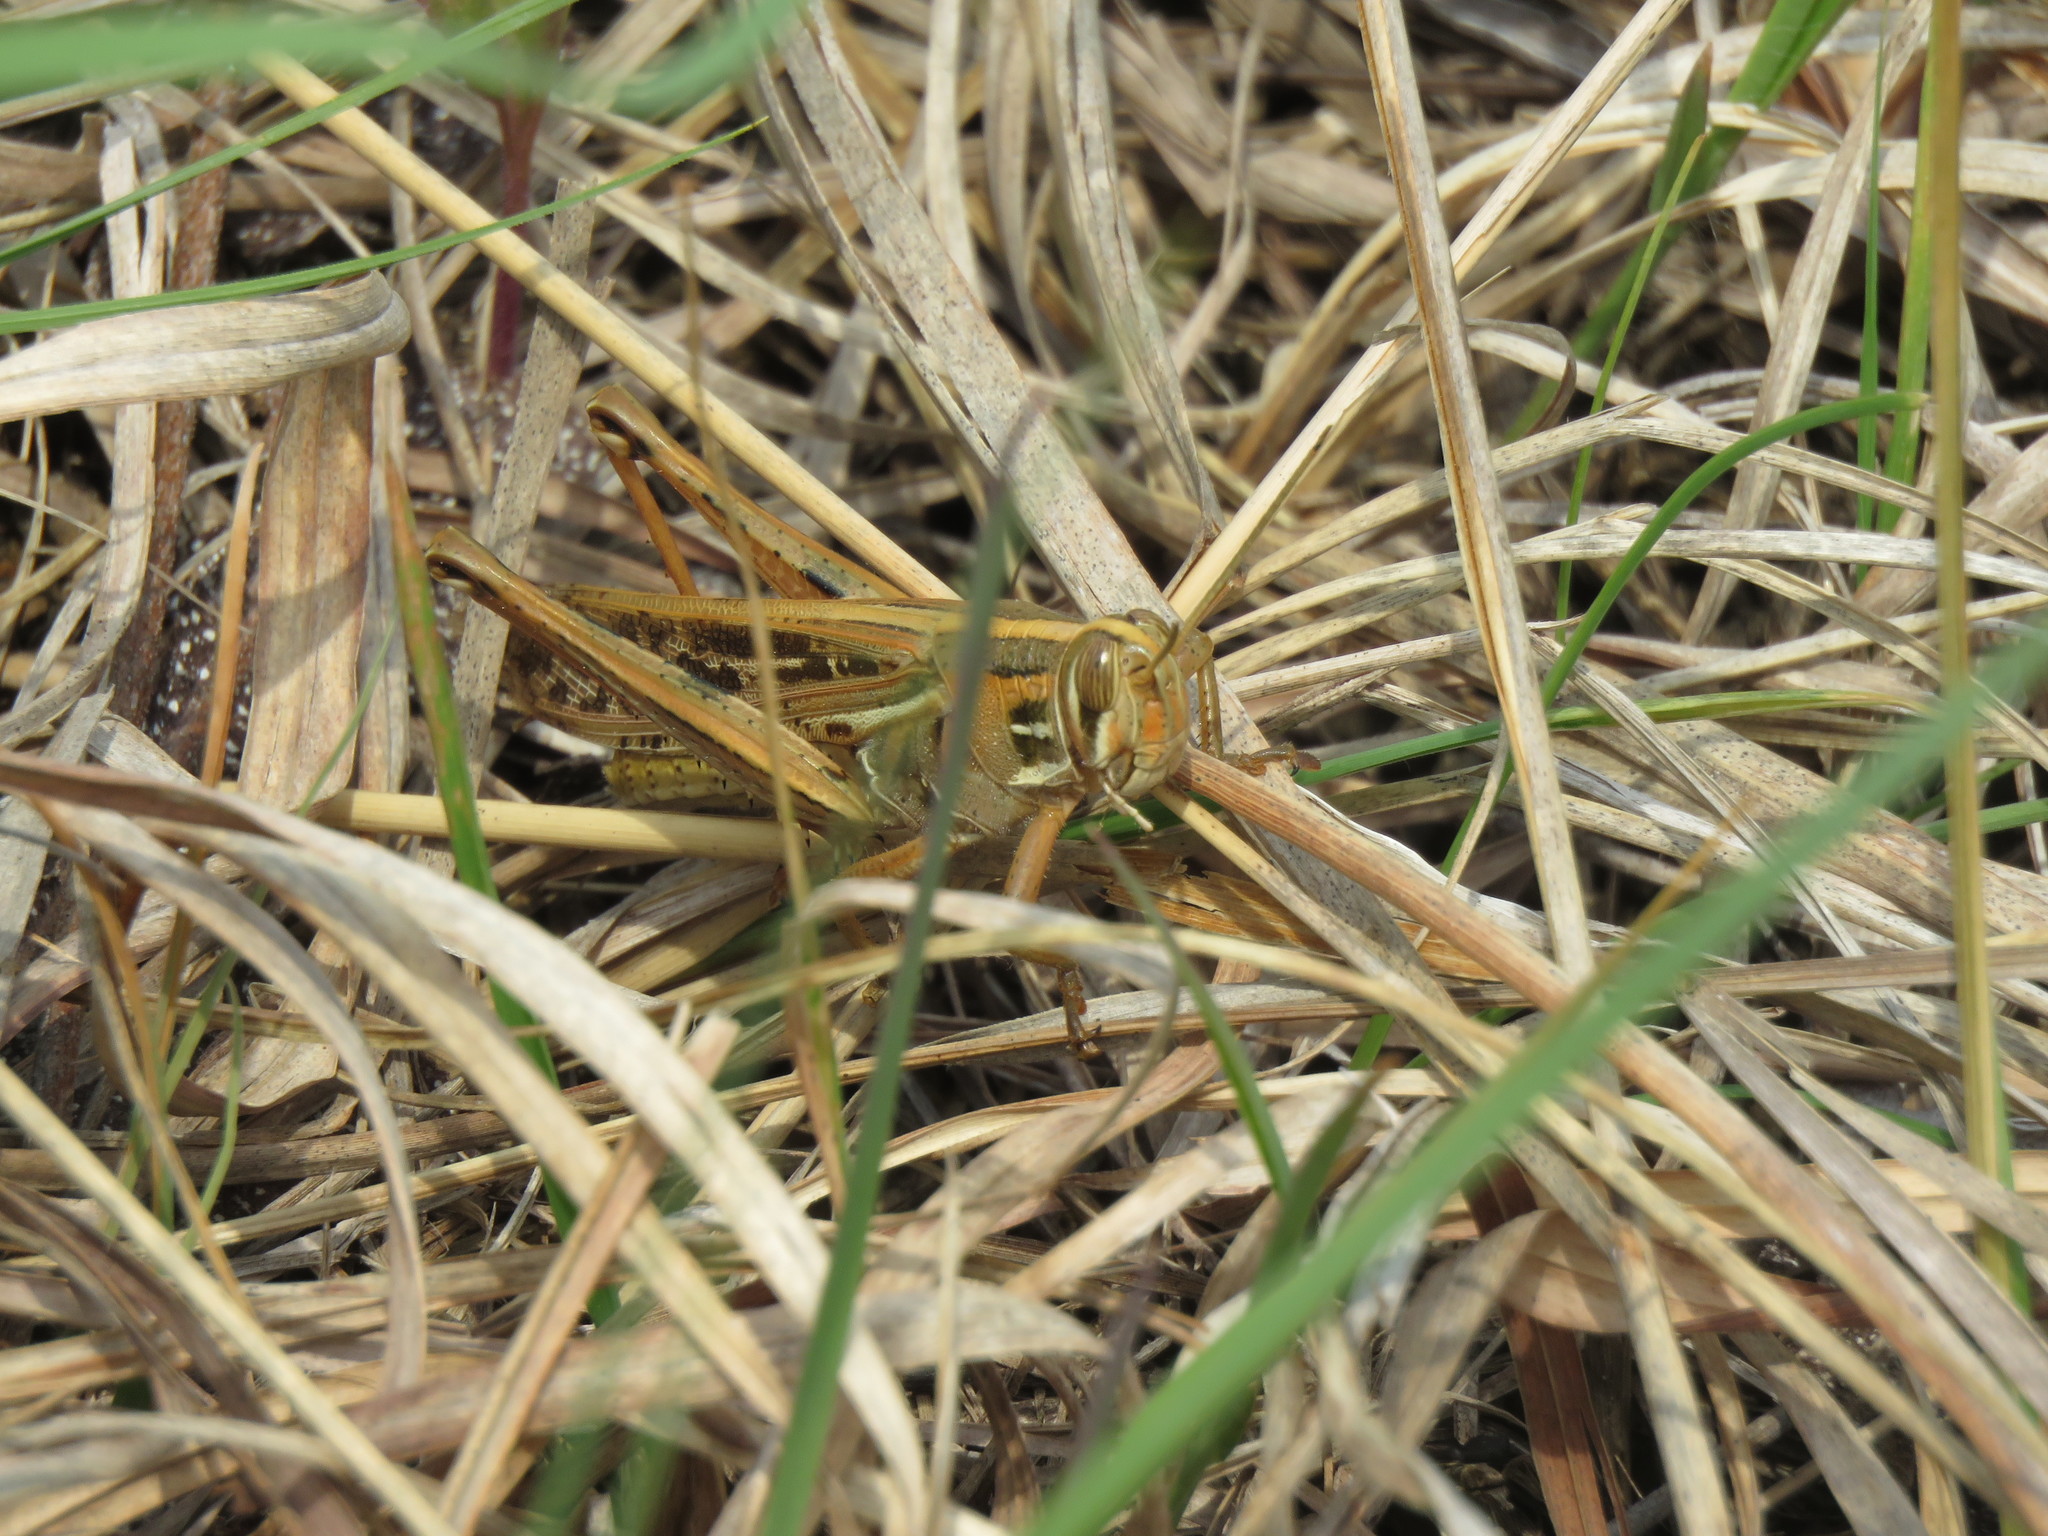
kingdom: Animalia
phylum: Arthropoda
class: Insecta
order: Orthoptera
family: Acrididae
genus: Schistocerca
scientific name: Schistocerca americana
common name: American bird locust
